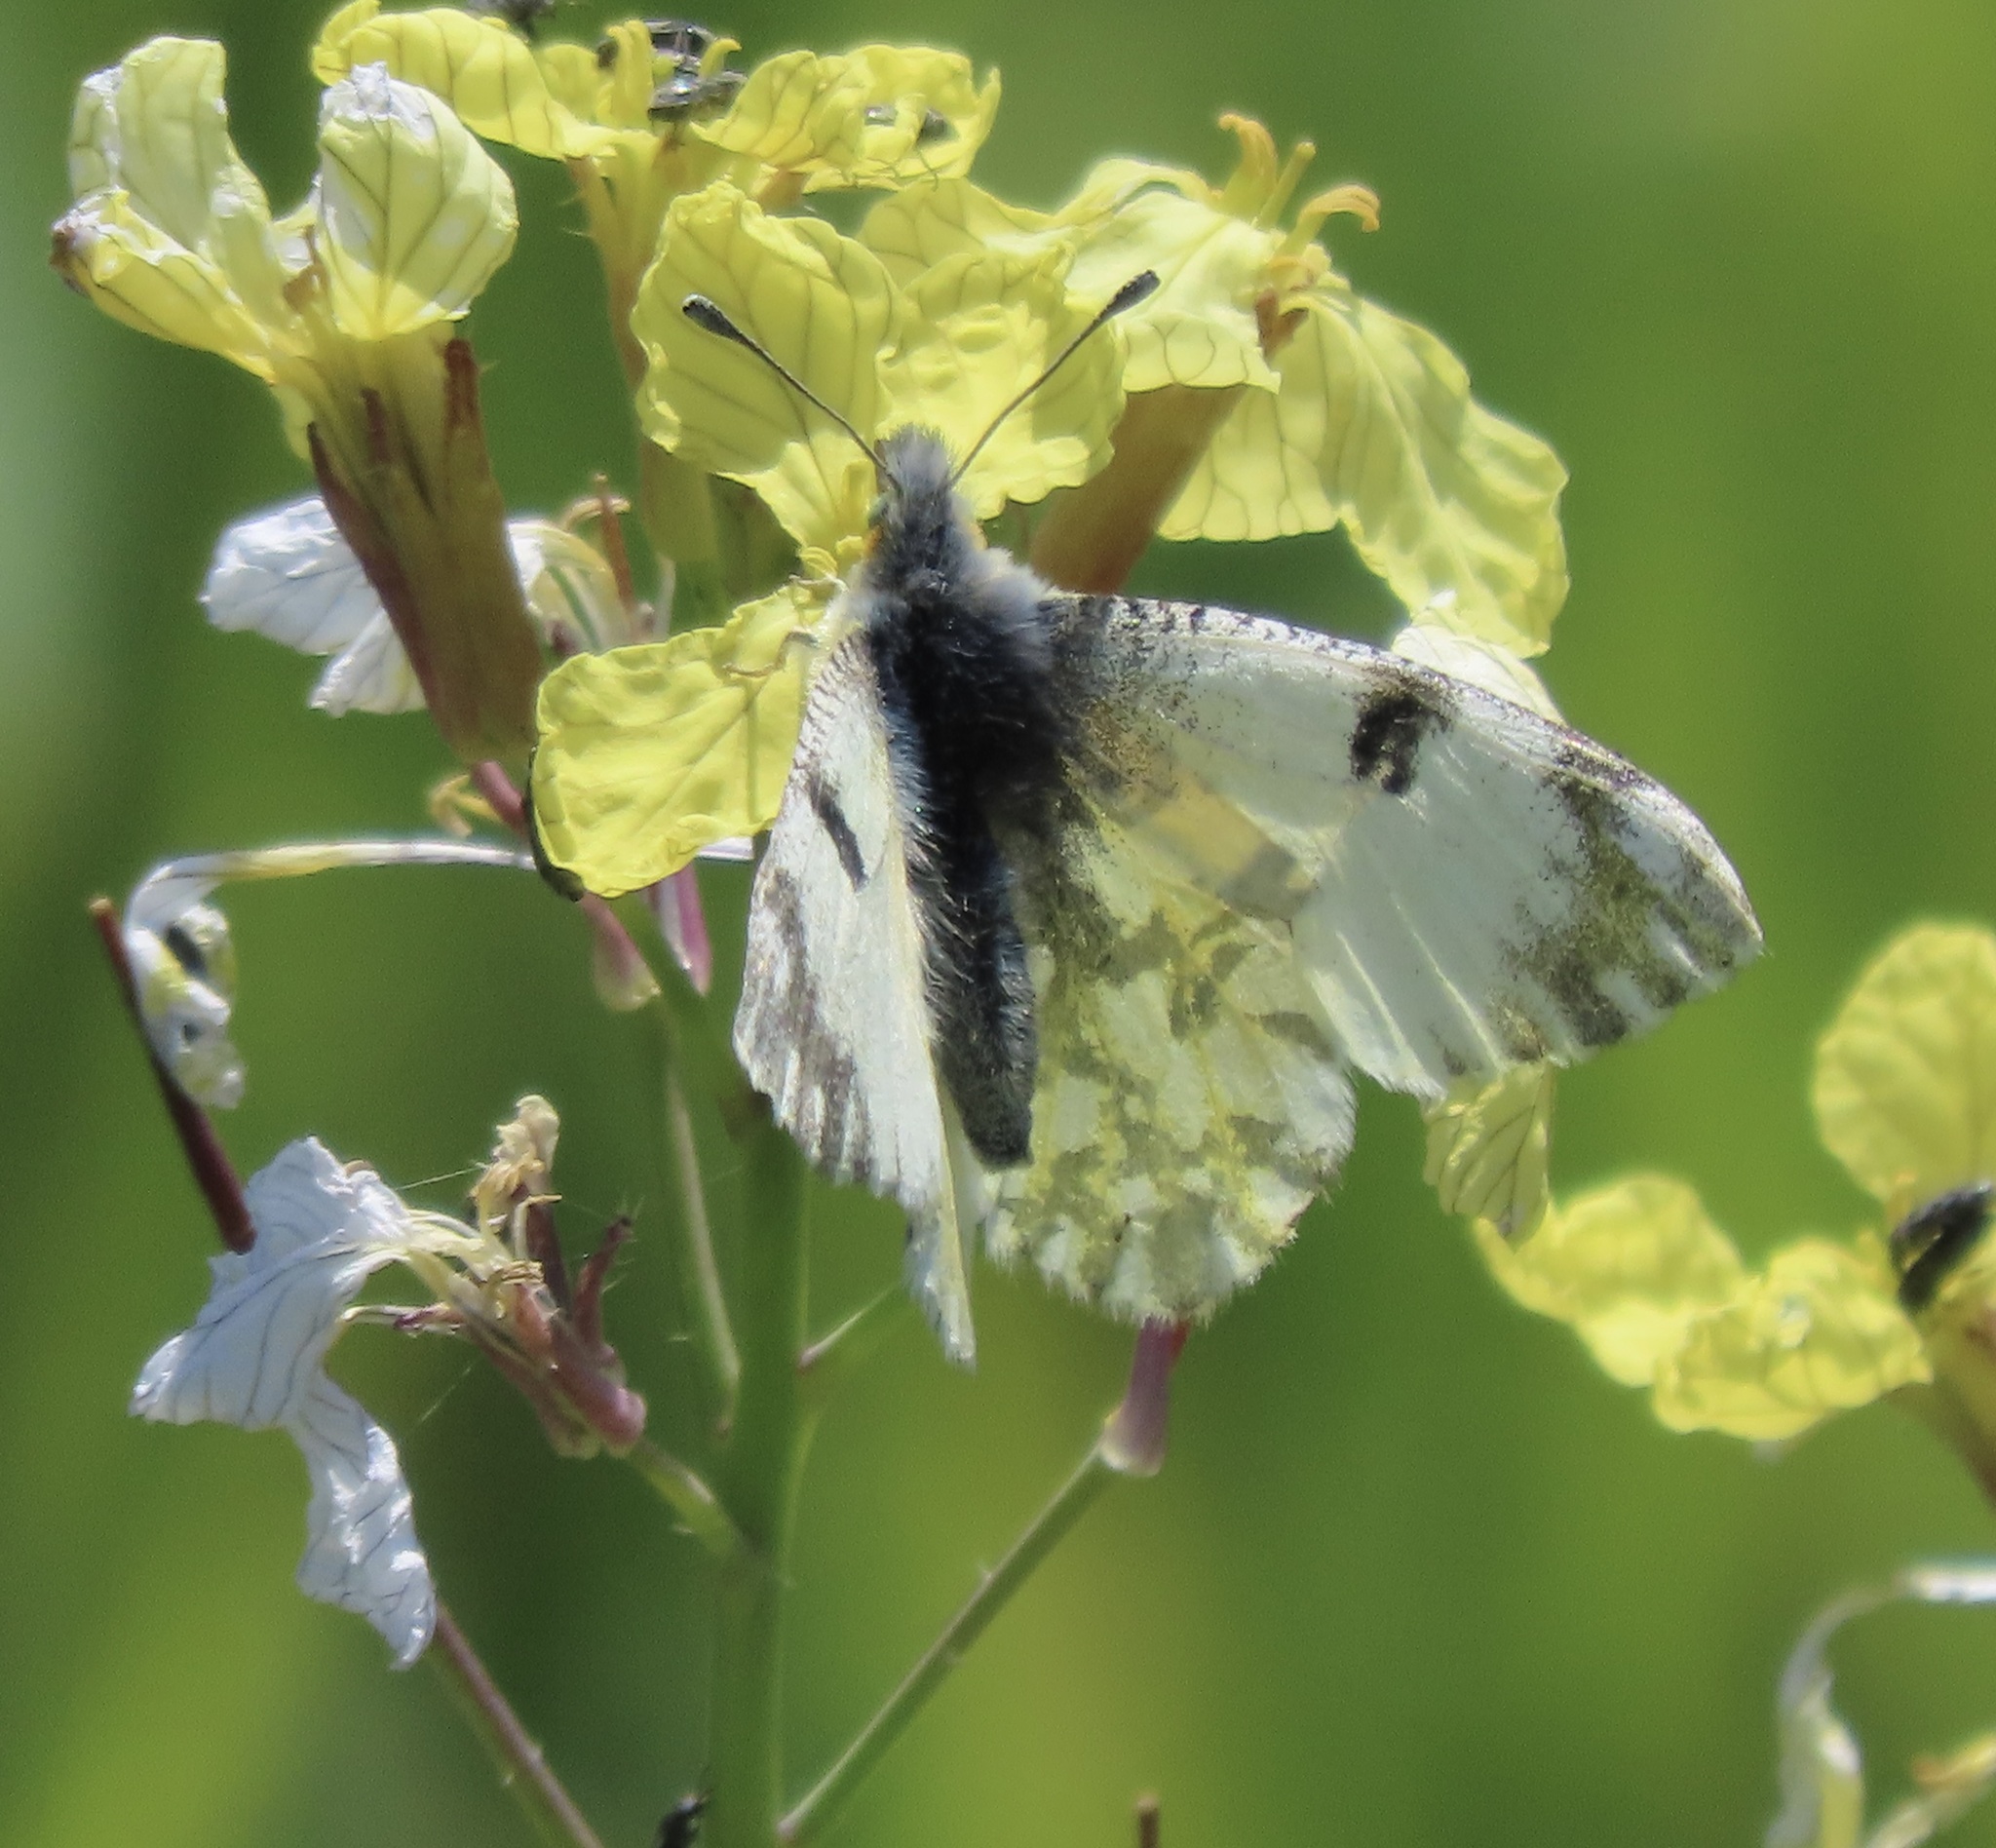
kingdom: Animalia
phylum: Arthropoda
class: Insecta
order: Lepidoptera
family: Pieridae
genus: Euchloe
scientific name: Euchloe ausonides
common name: Creamy marblewing
